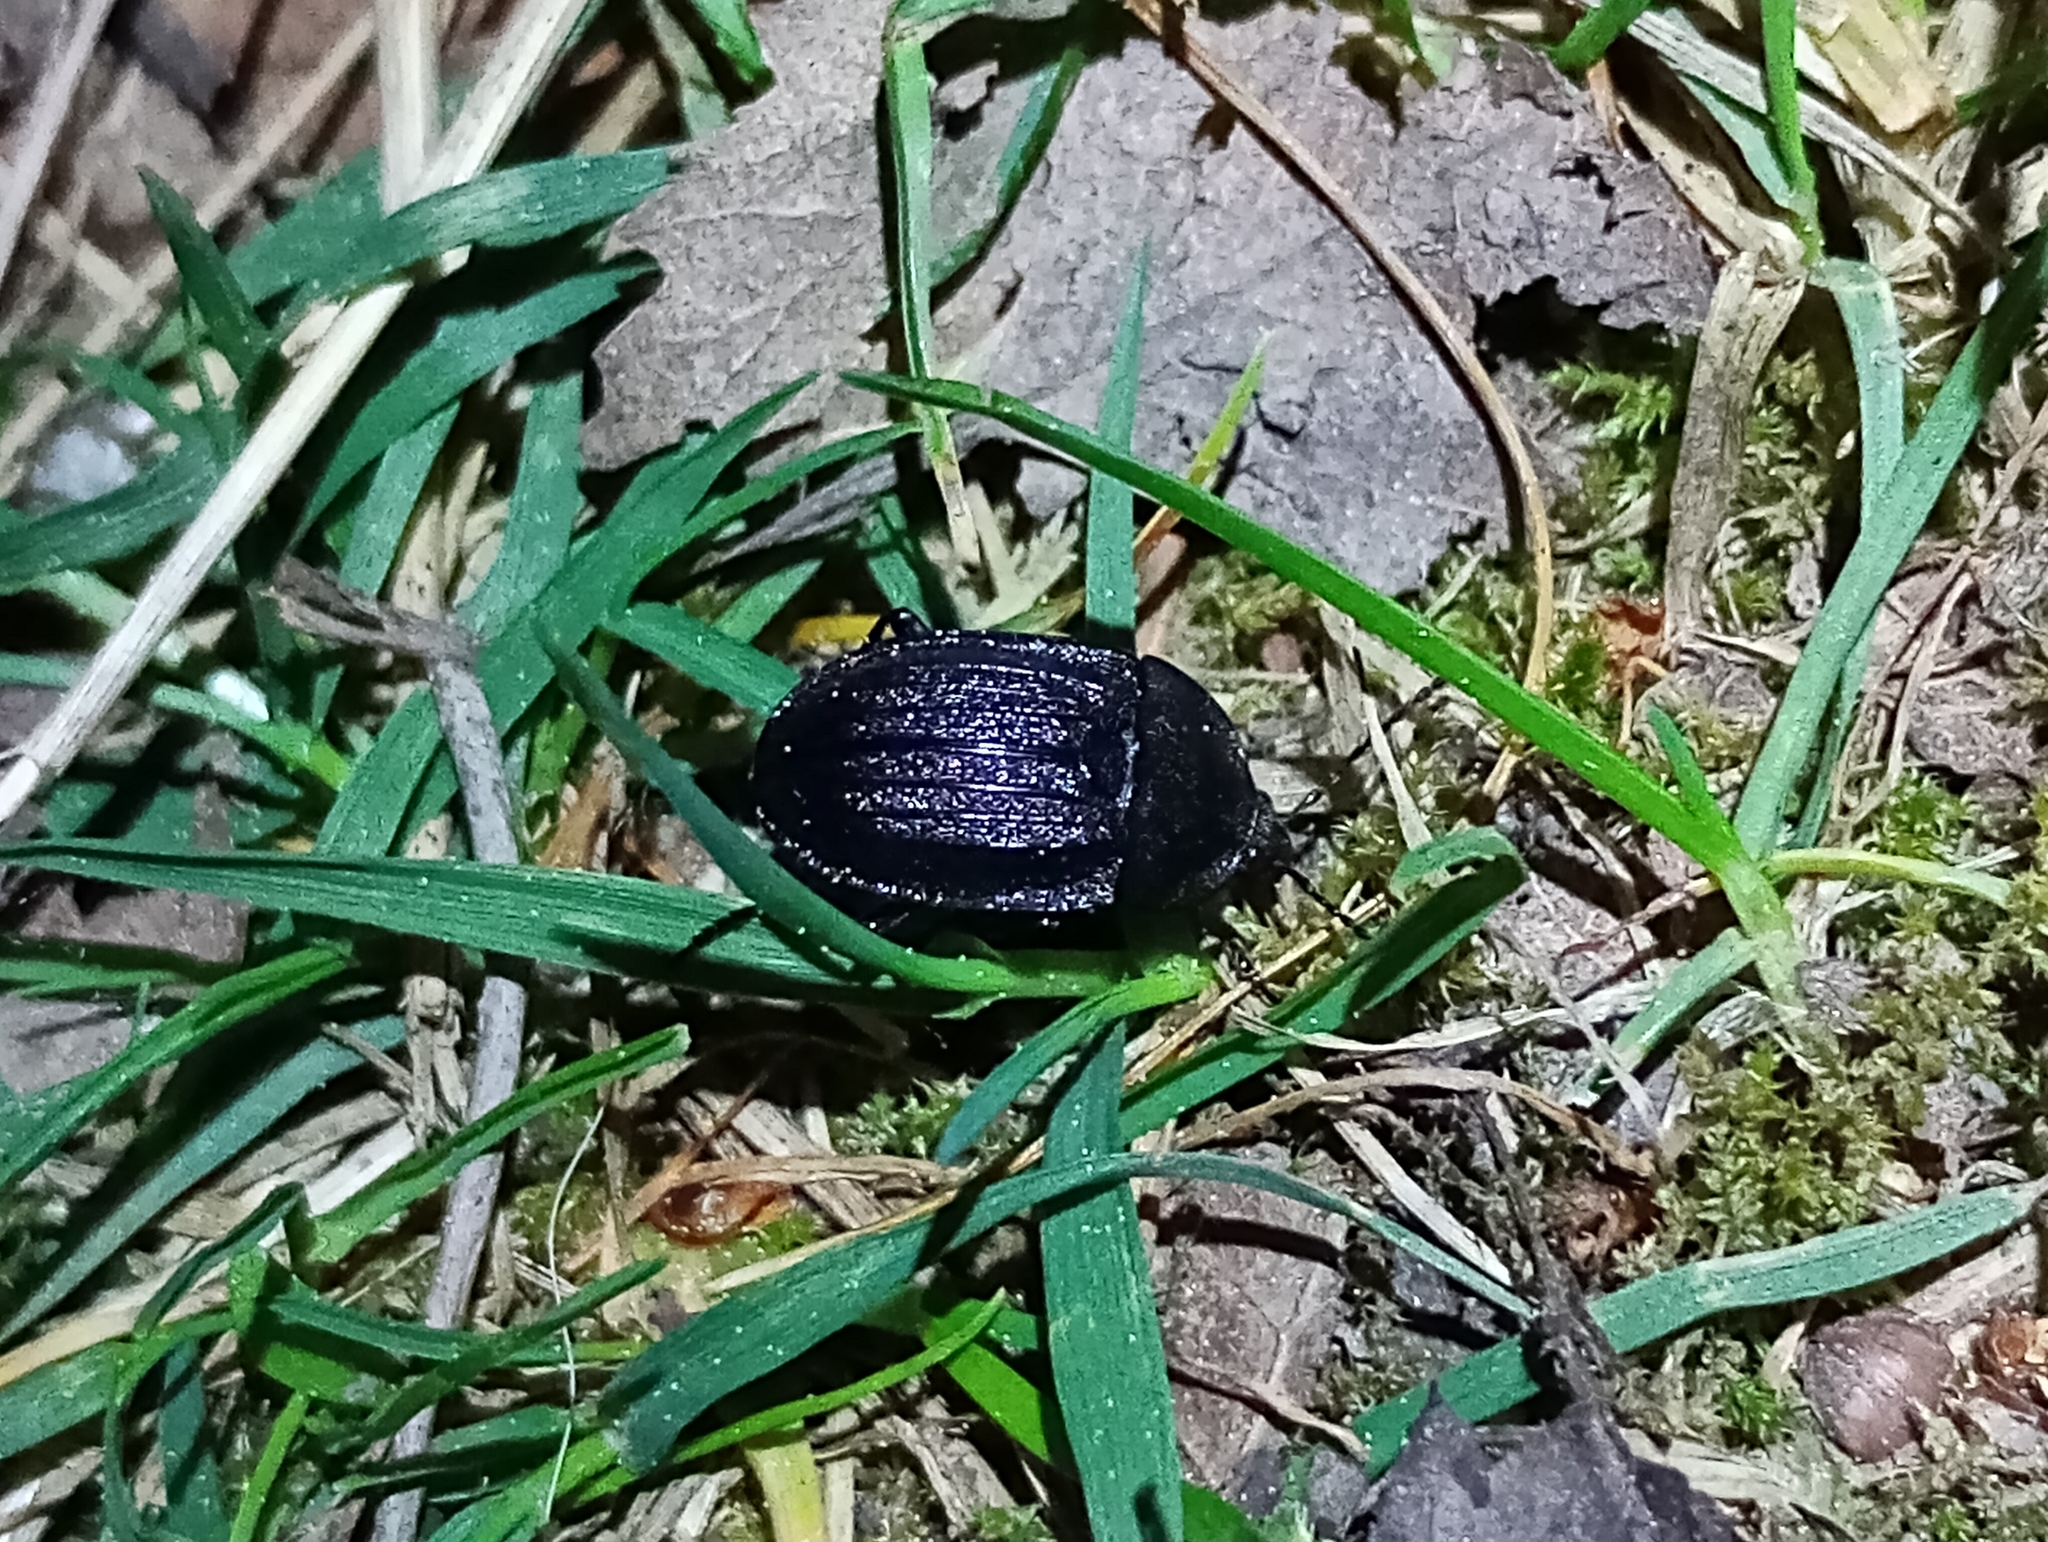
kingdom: Animalia
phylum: Arthropoda
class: Insecta
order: Coleoptera
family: Staphylinidae
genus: Silpha
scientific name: Silpha atrata
